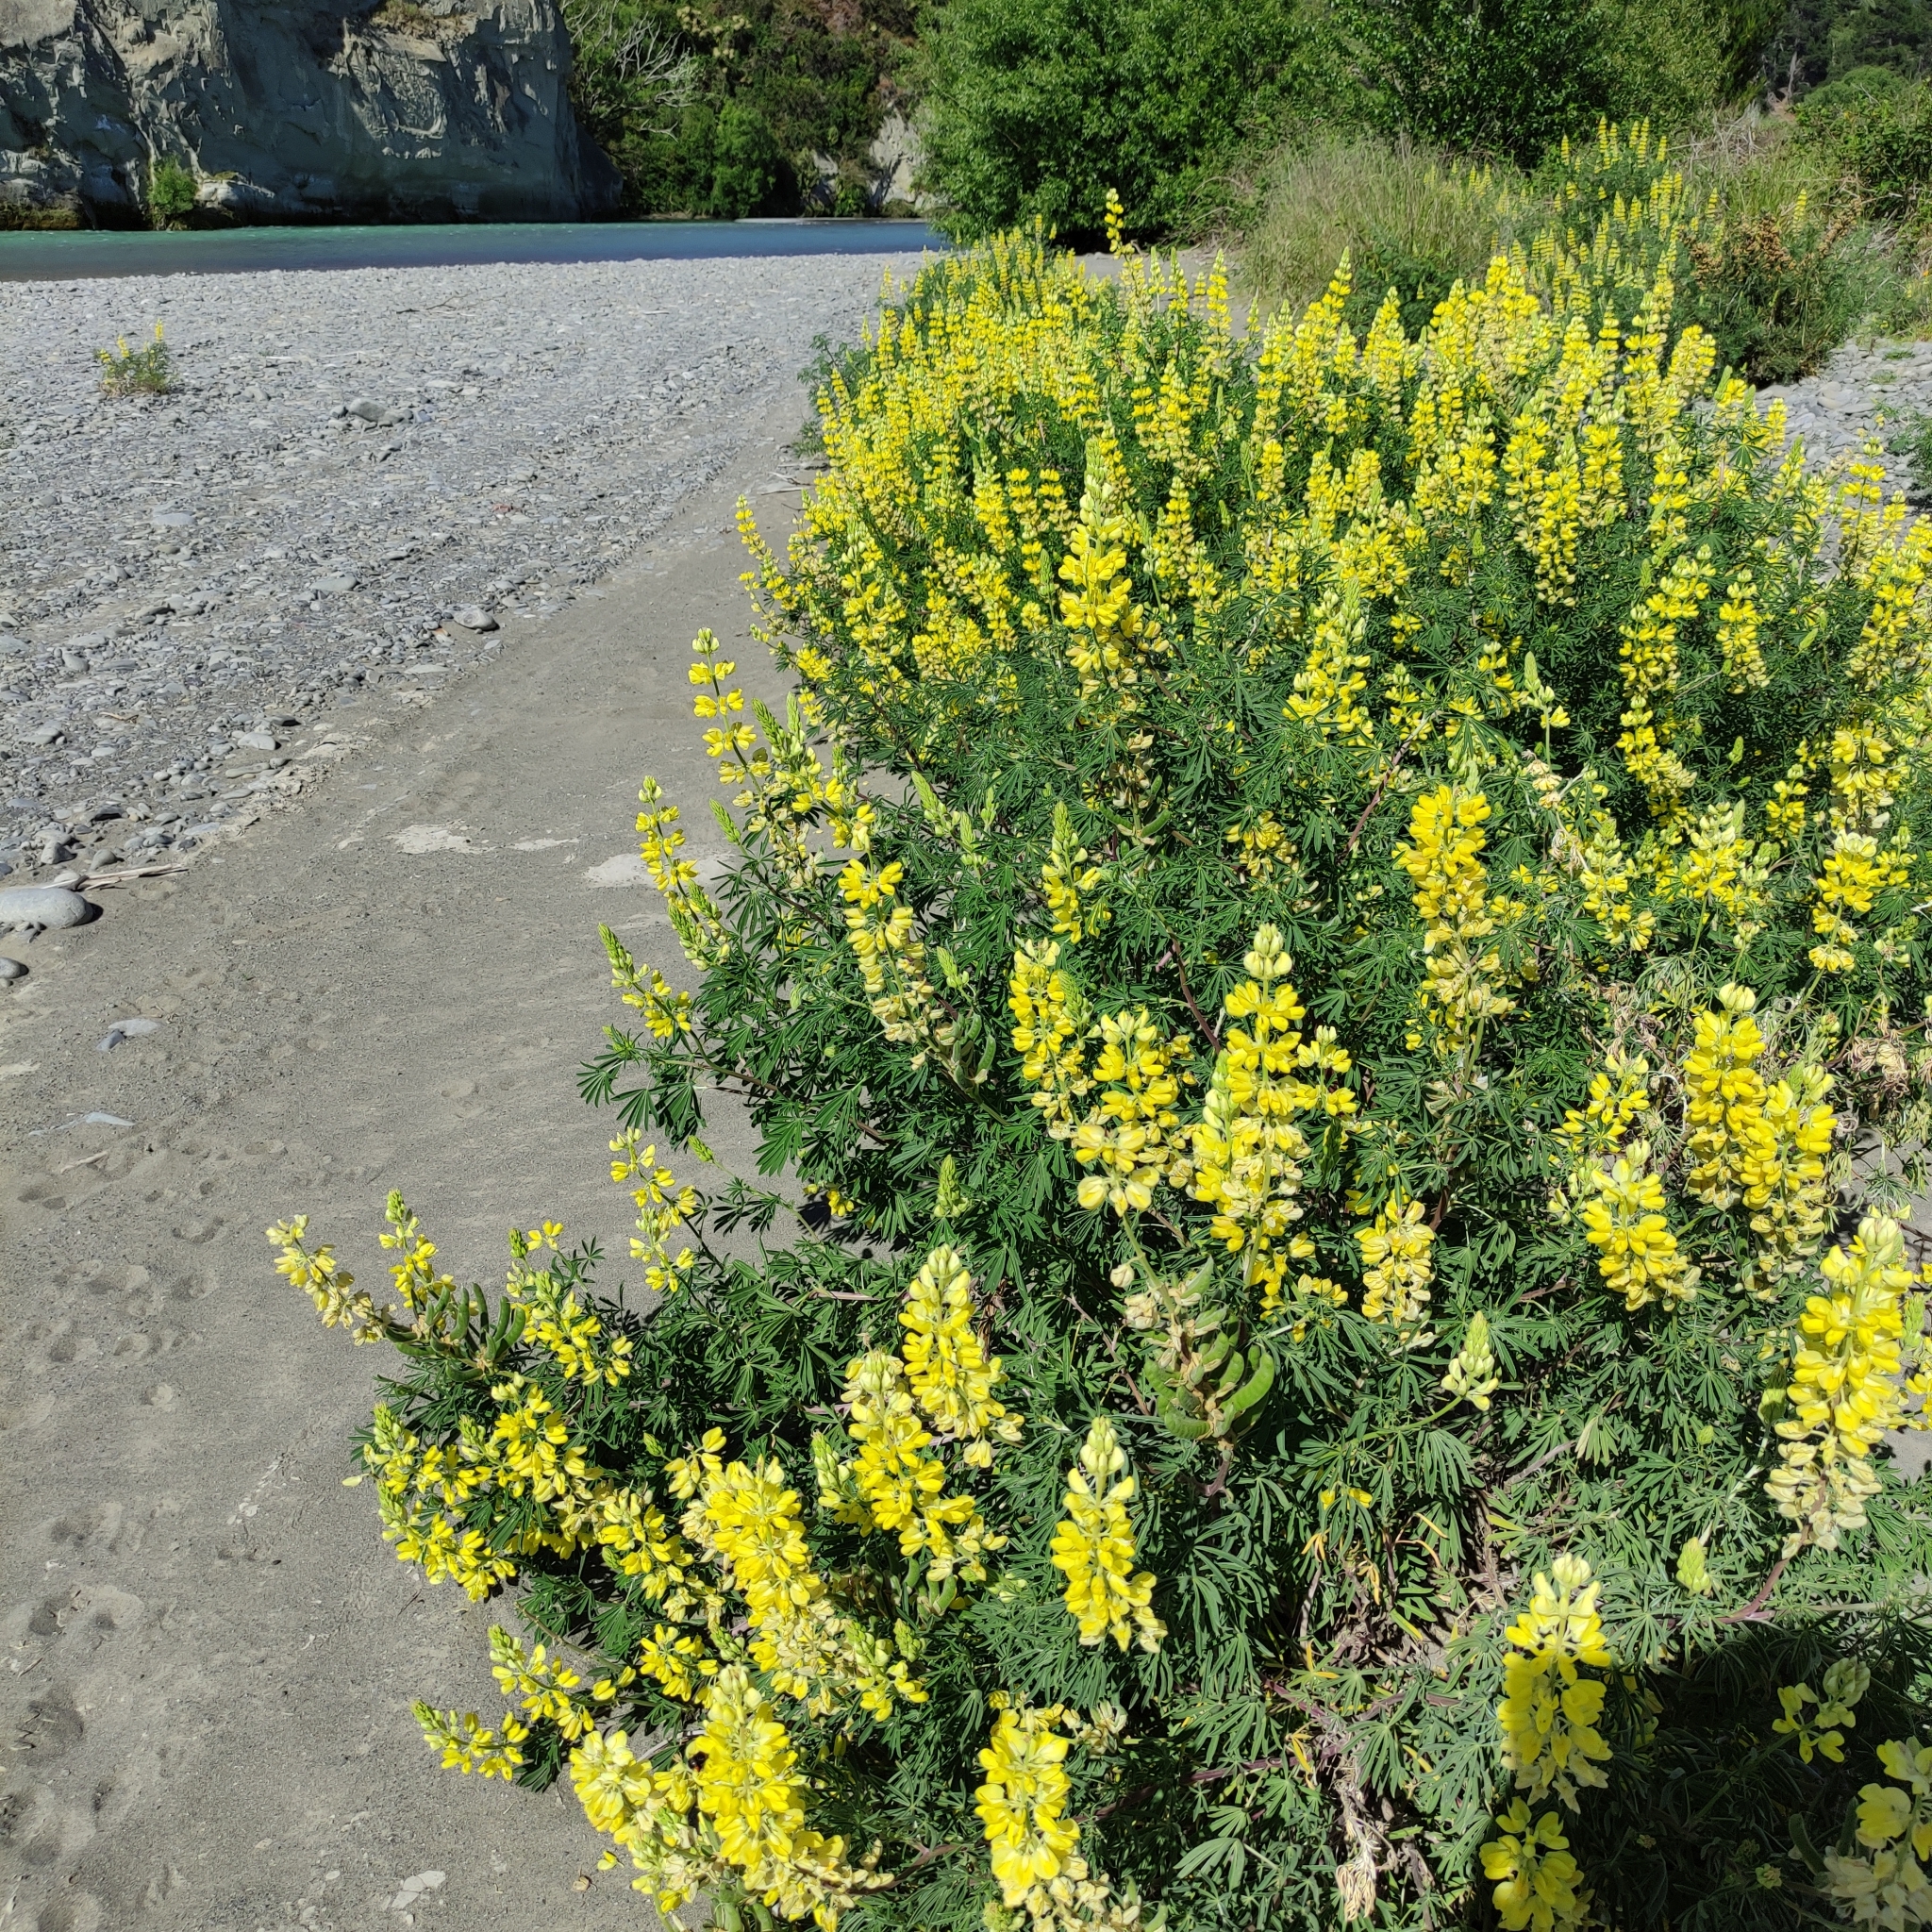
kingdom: Plantae
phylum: Tracheophyta
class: Magnoliopsida
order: Fabales
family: Fabaceae
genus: Lupinus
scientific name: Lupinus arboreus
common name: Yellow bush lupine
